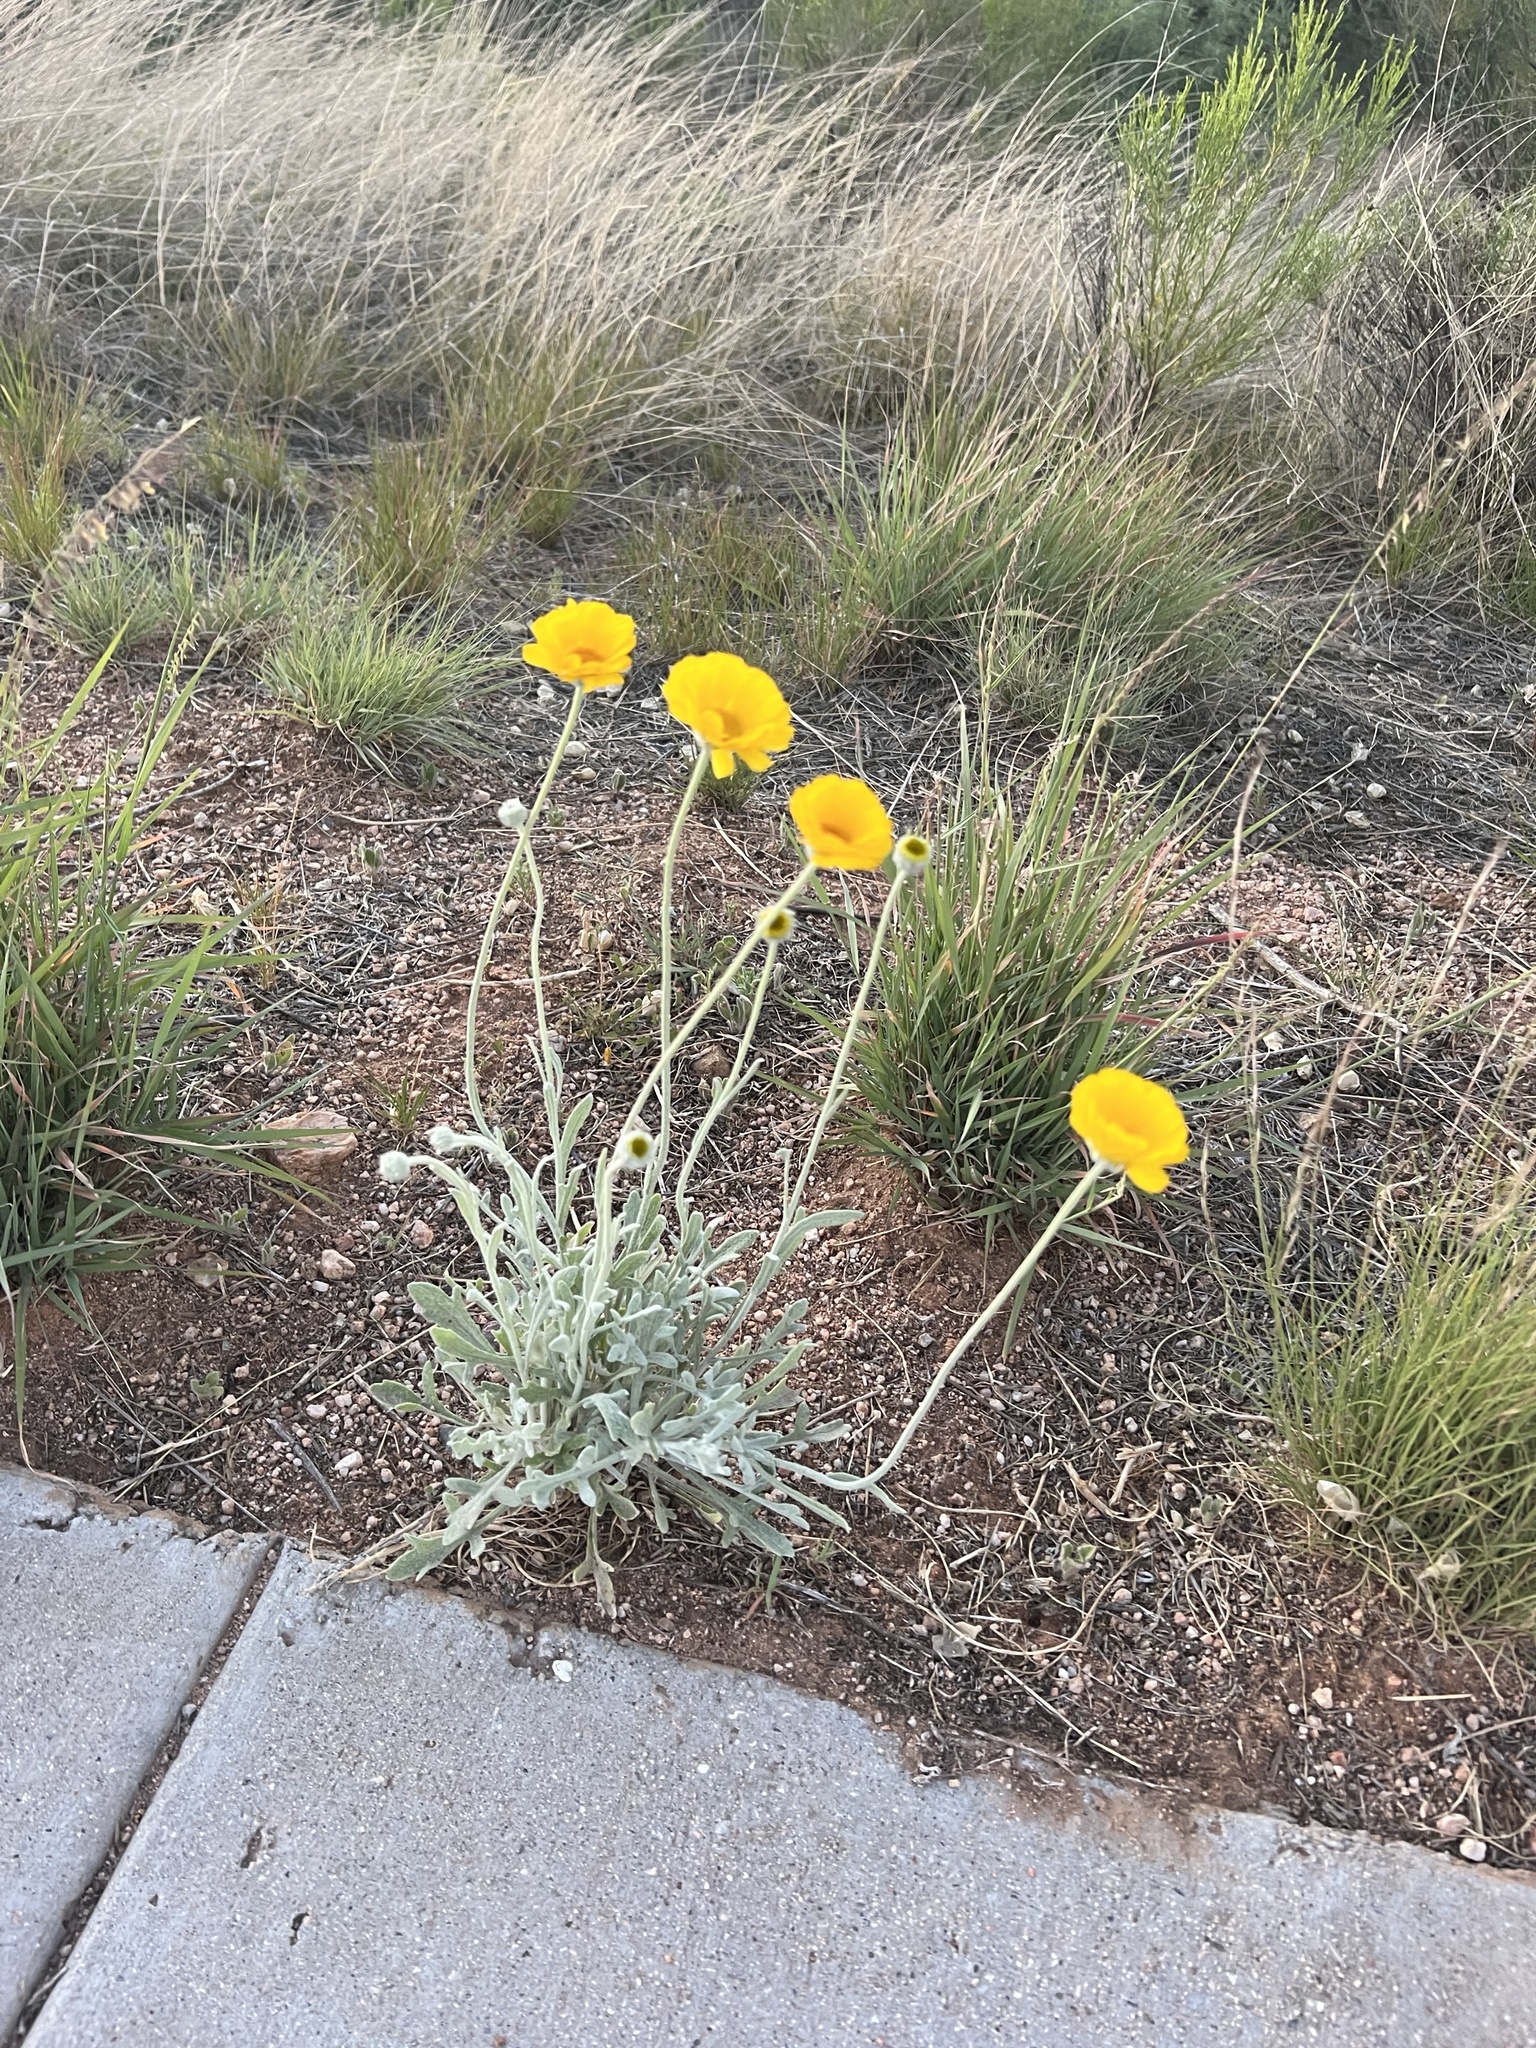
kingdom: Plantae
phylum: Tracheophyta
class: Magnoliopsida
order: Asterales
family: Asteraceae
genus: Baileya
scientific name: Baileya multiradiata
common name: Desert-marigold
